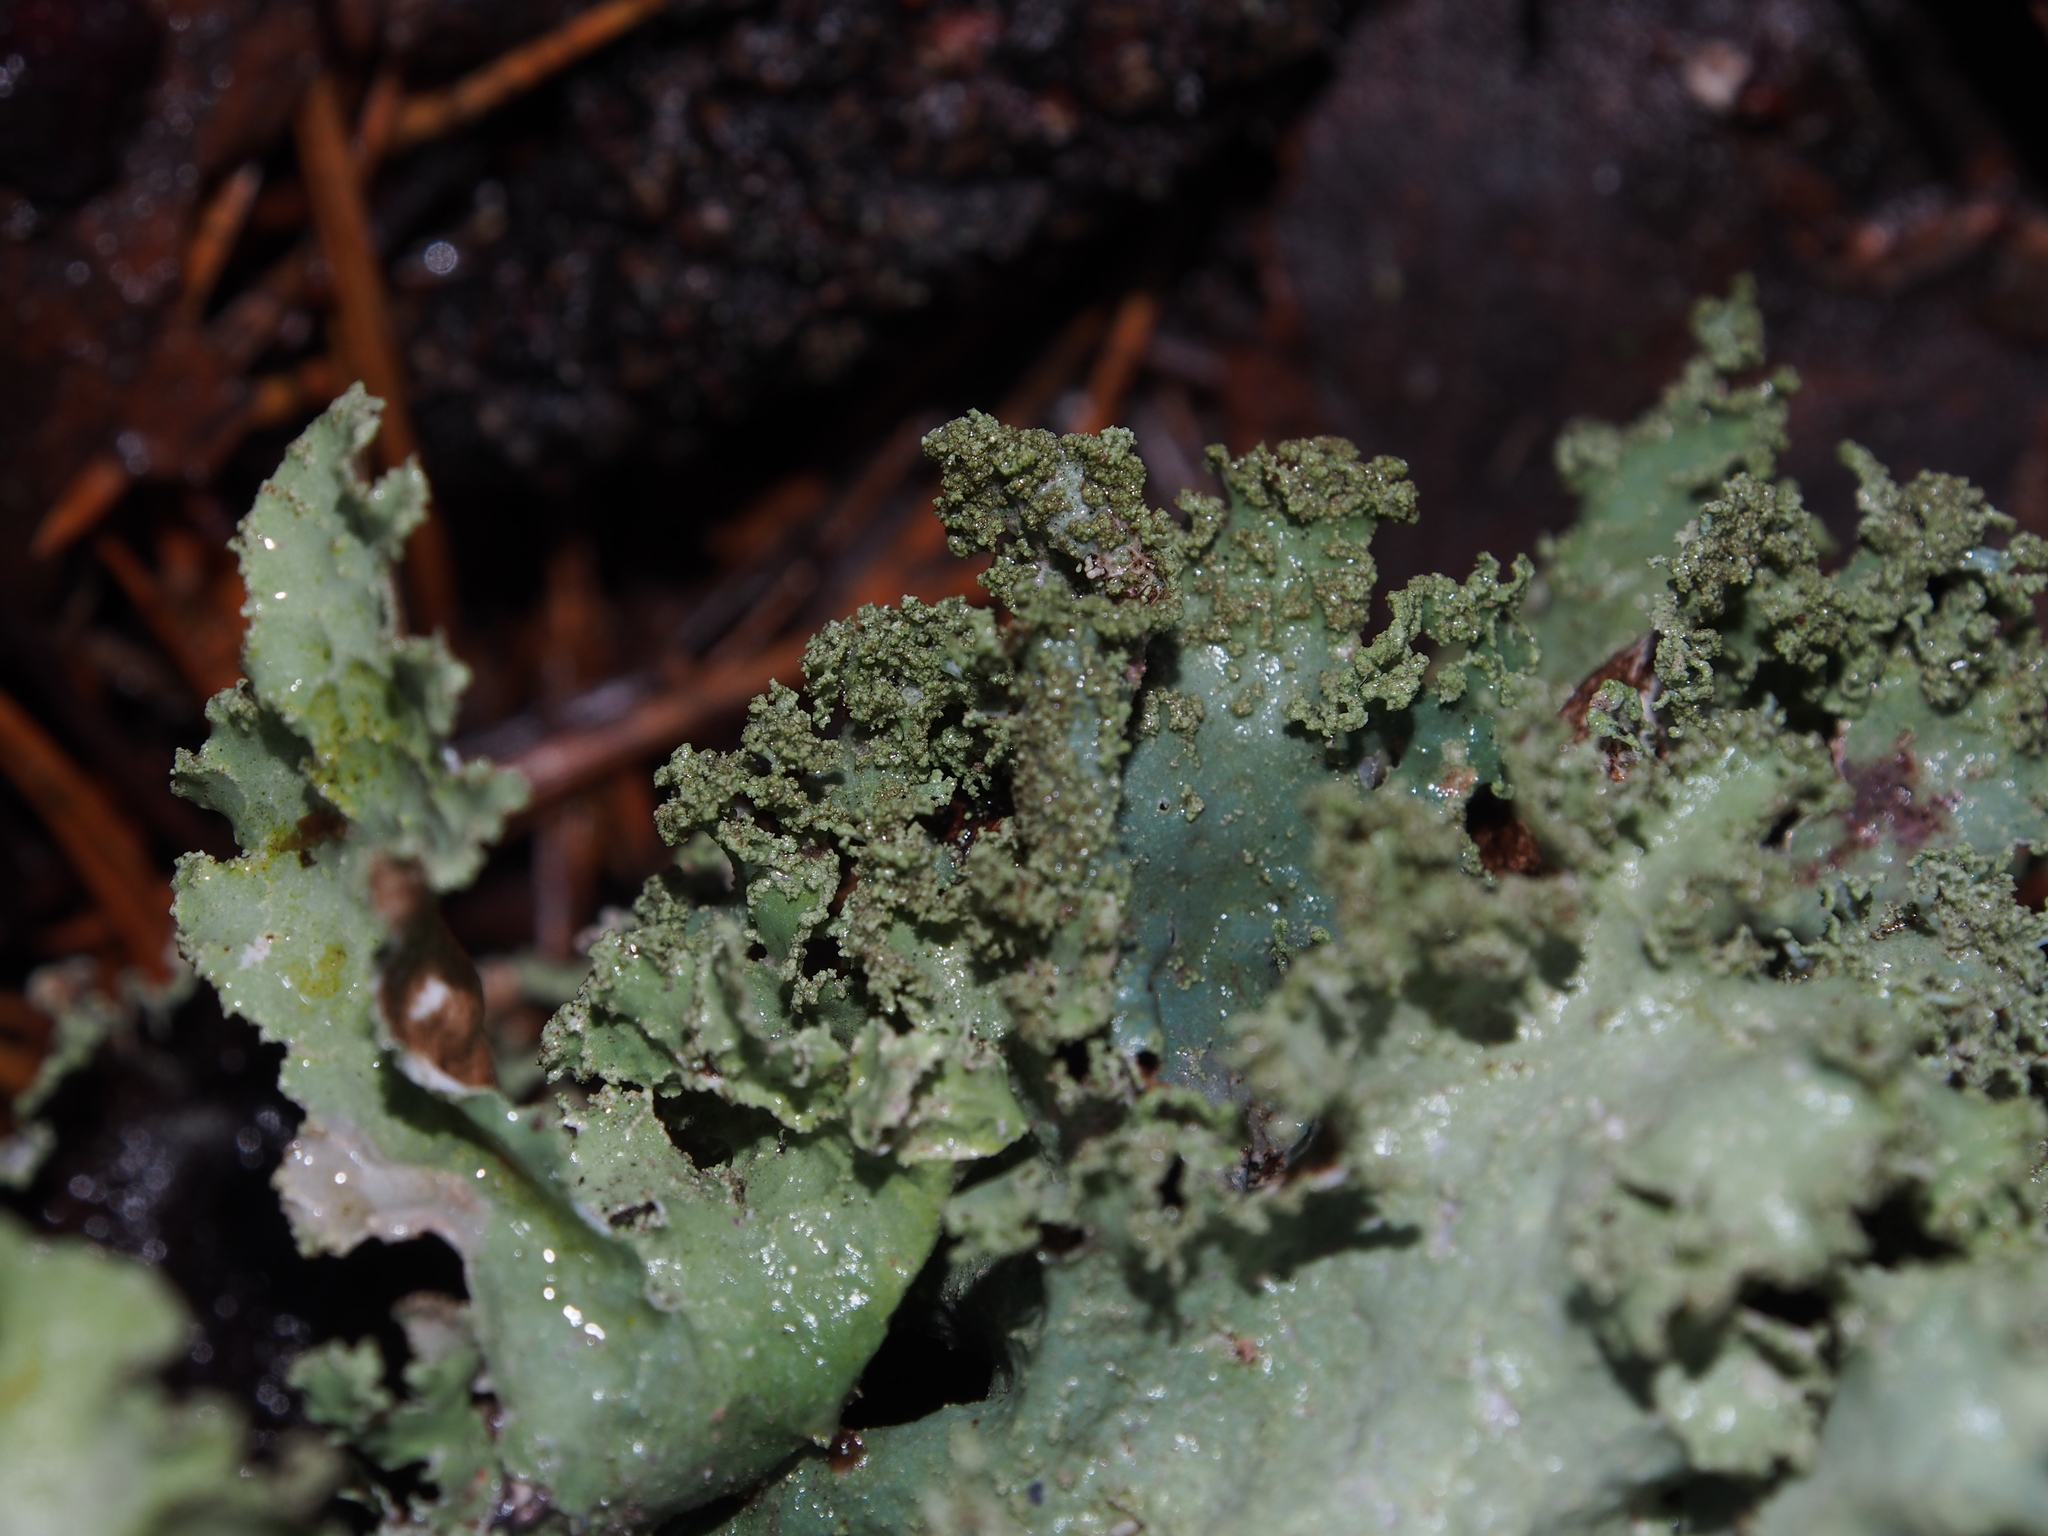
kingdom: Fungi
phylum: Ascomycota
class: Lecanoromycetes
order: Lecanorales
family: Parmeliaceae
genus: Platismatia
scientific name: Platismatia glauca
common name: Varied rag lichen
